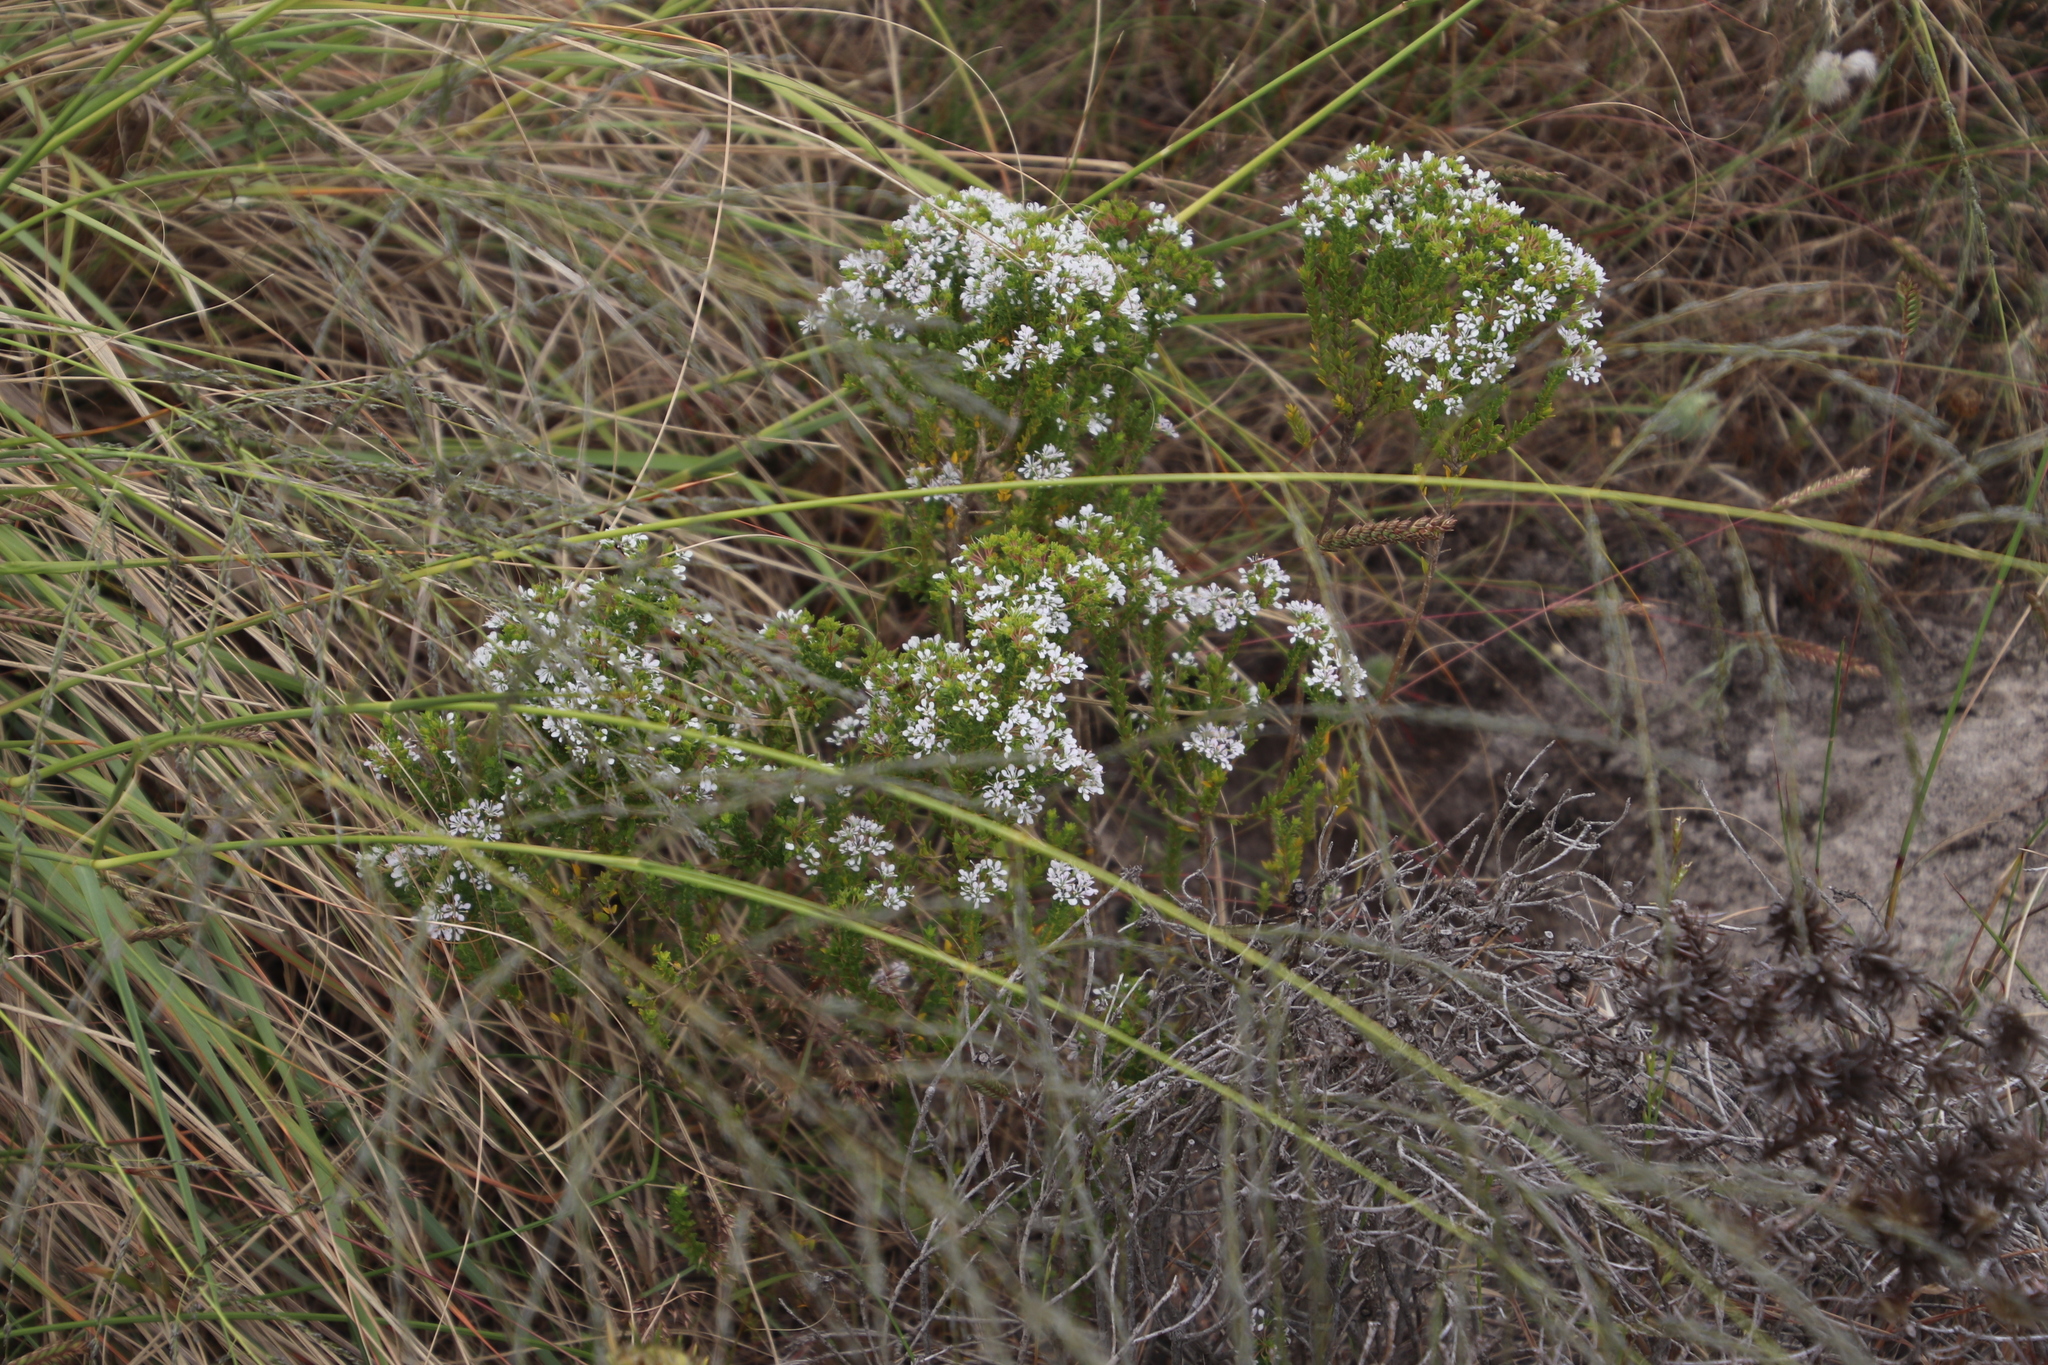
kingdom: Plantae
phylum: Tracheophyta
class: Magnoliopsida
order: Sapindales
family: Rutaceae
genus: Agathosma
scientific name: Agathosma glabrata
